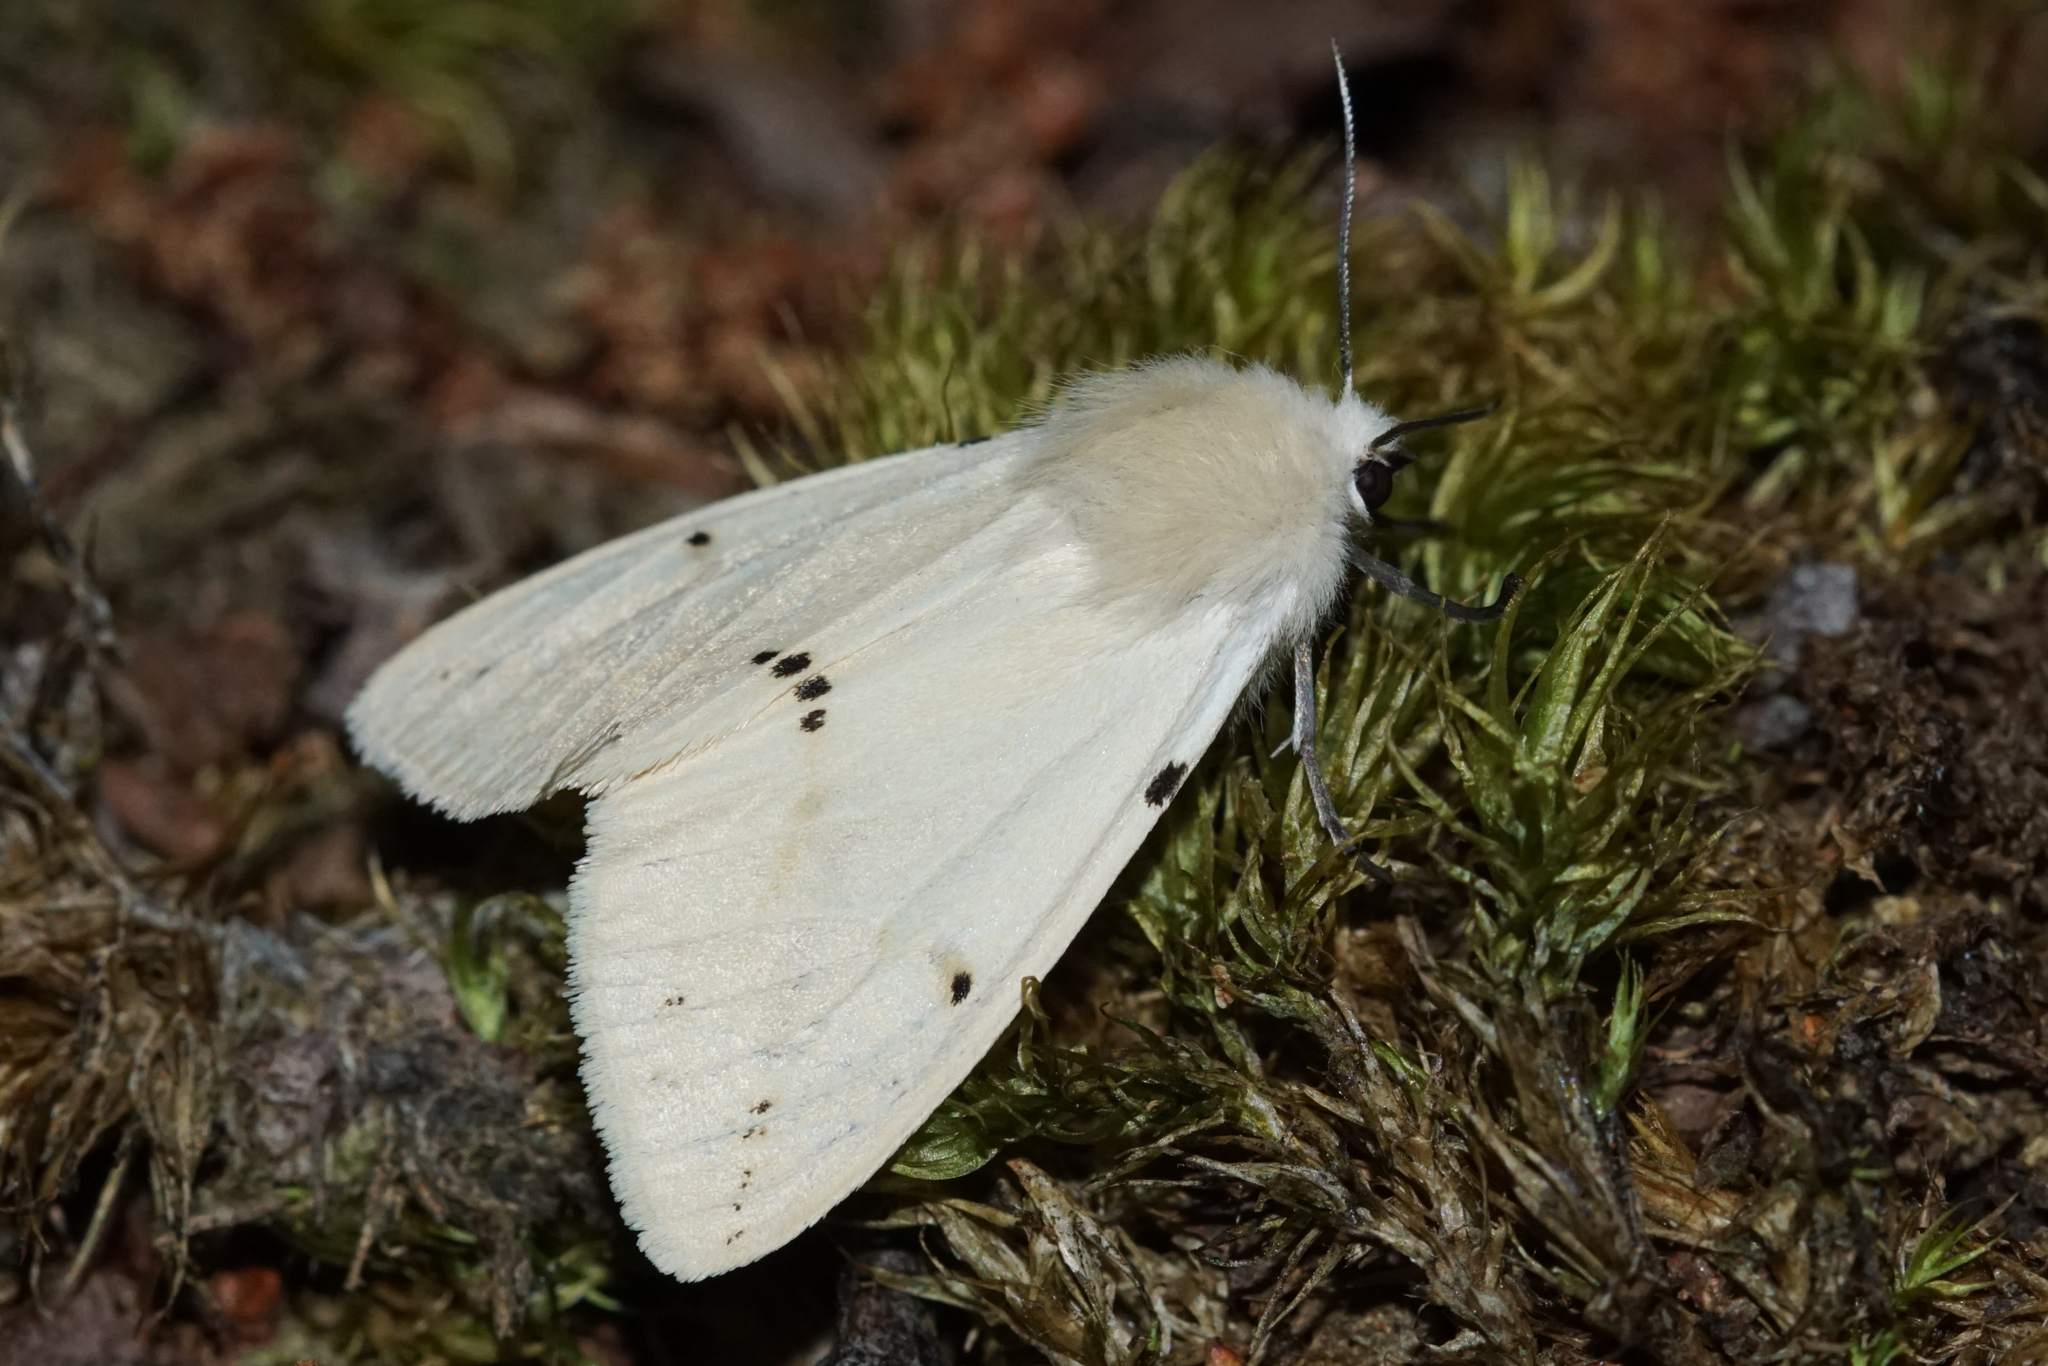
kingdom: Animalia
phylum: Arthropoda
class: Insecta
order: Lepidoptera
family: Erebidae
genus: Spilarctia
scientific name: Spilarctia lutea
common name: Buff ermine
